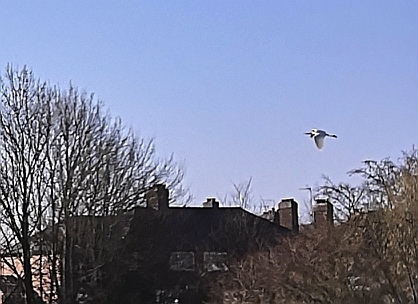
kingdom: Animalia
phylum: Chordata
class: Aves
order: Pelecaniformes
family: Ardeidae
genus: Egretta
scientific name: Egretta garzetta
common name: Little egret
